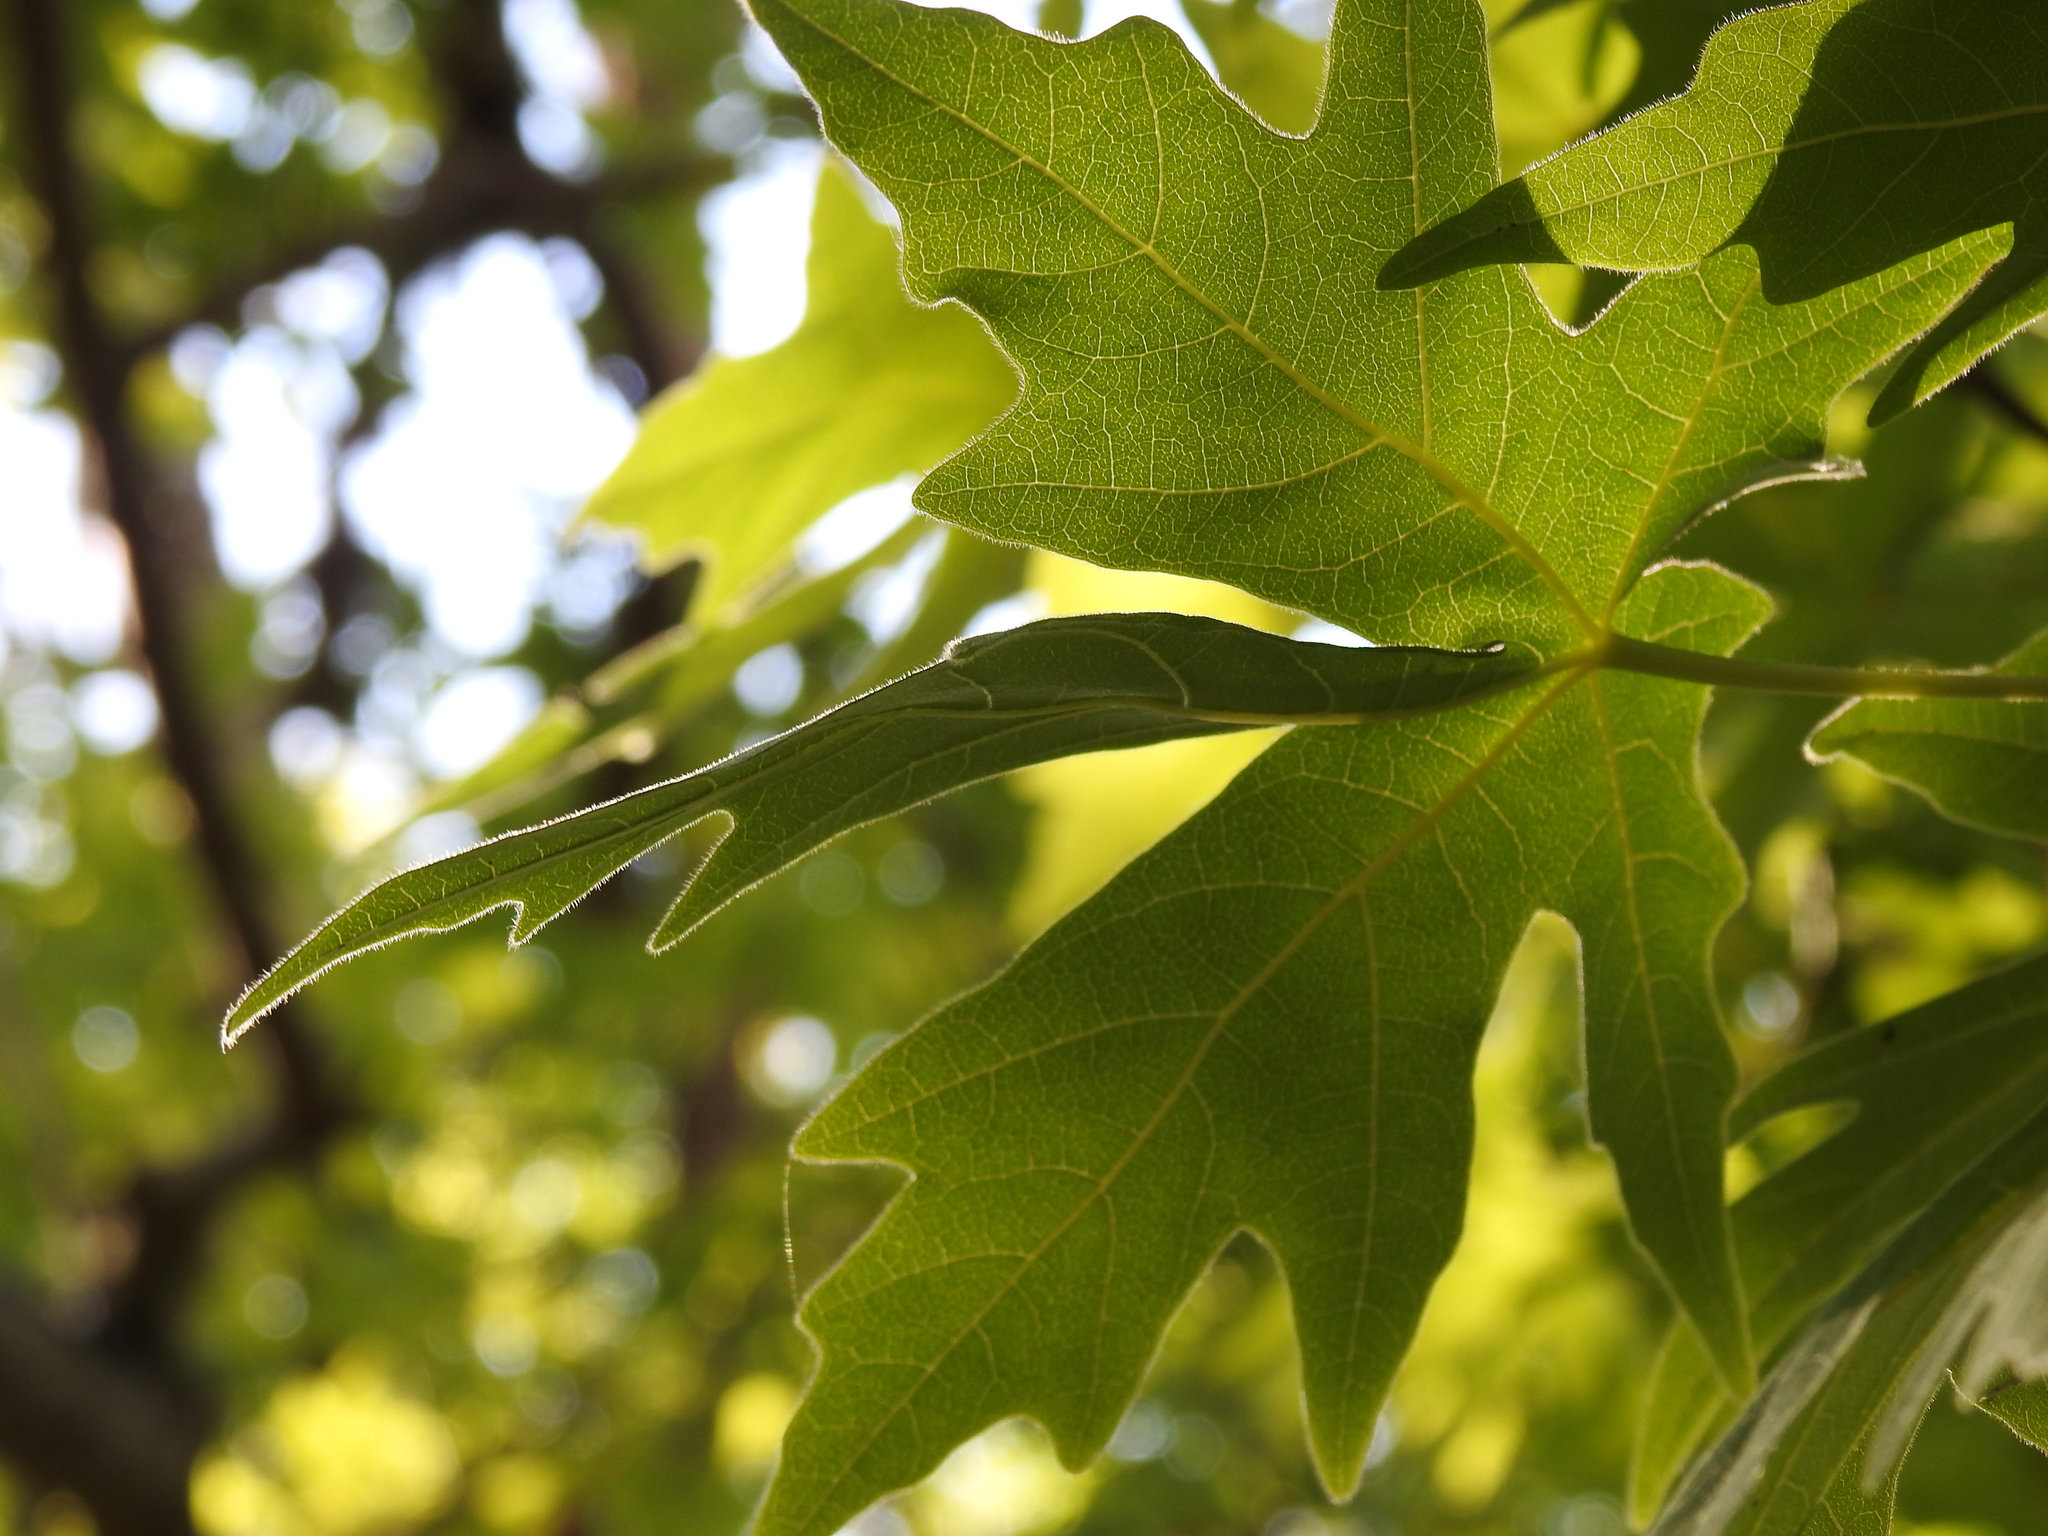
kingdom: Plantae
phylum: Tracheophyta
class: Magnoliopsida
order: Sapindales
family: Sapindaceae
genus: Acer
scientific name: Acer macrophyllum
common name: Oregon maple
